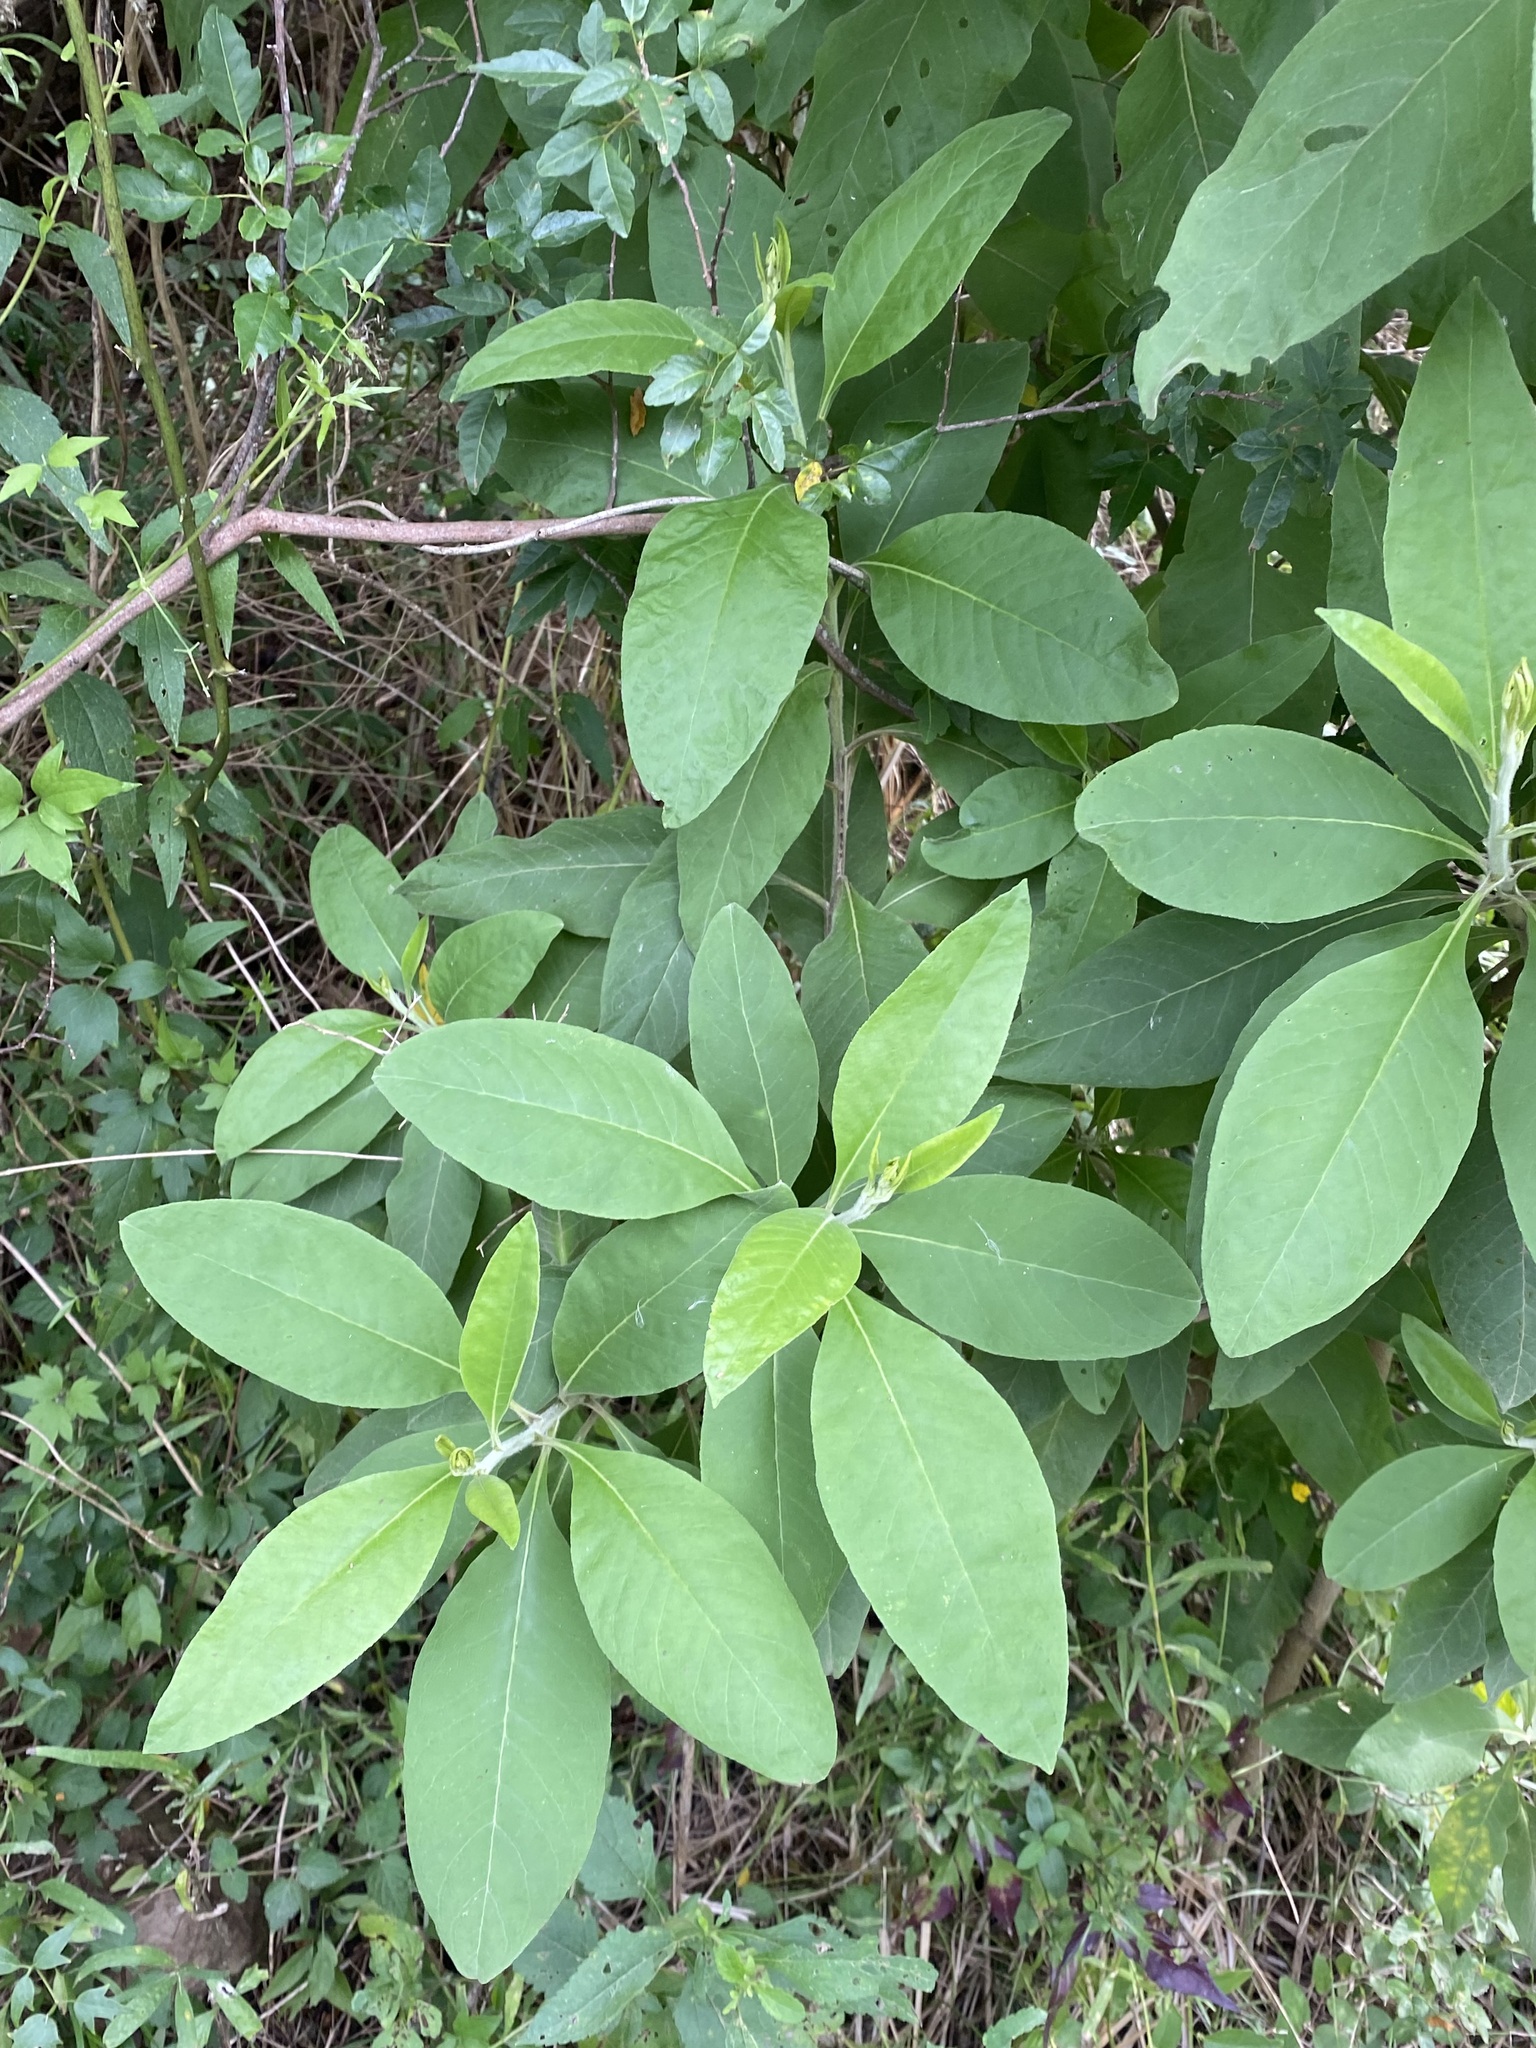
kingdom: Plantae
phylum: Tracheophyta
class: Magnoliopsida
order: Asterales
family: Asteraceae
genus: Trixis
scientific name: Trixis praestans
